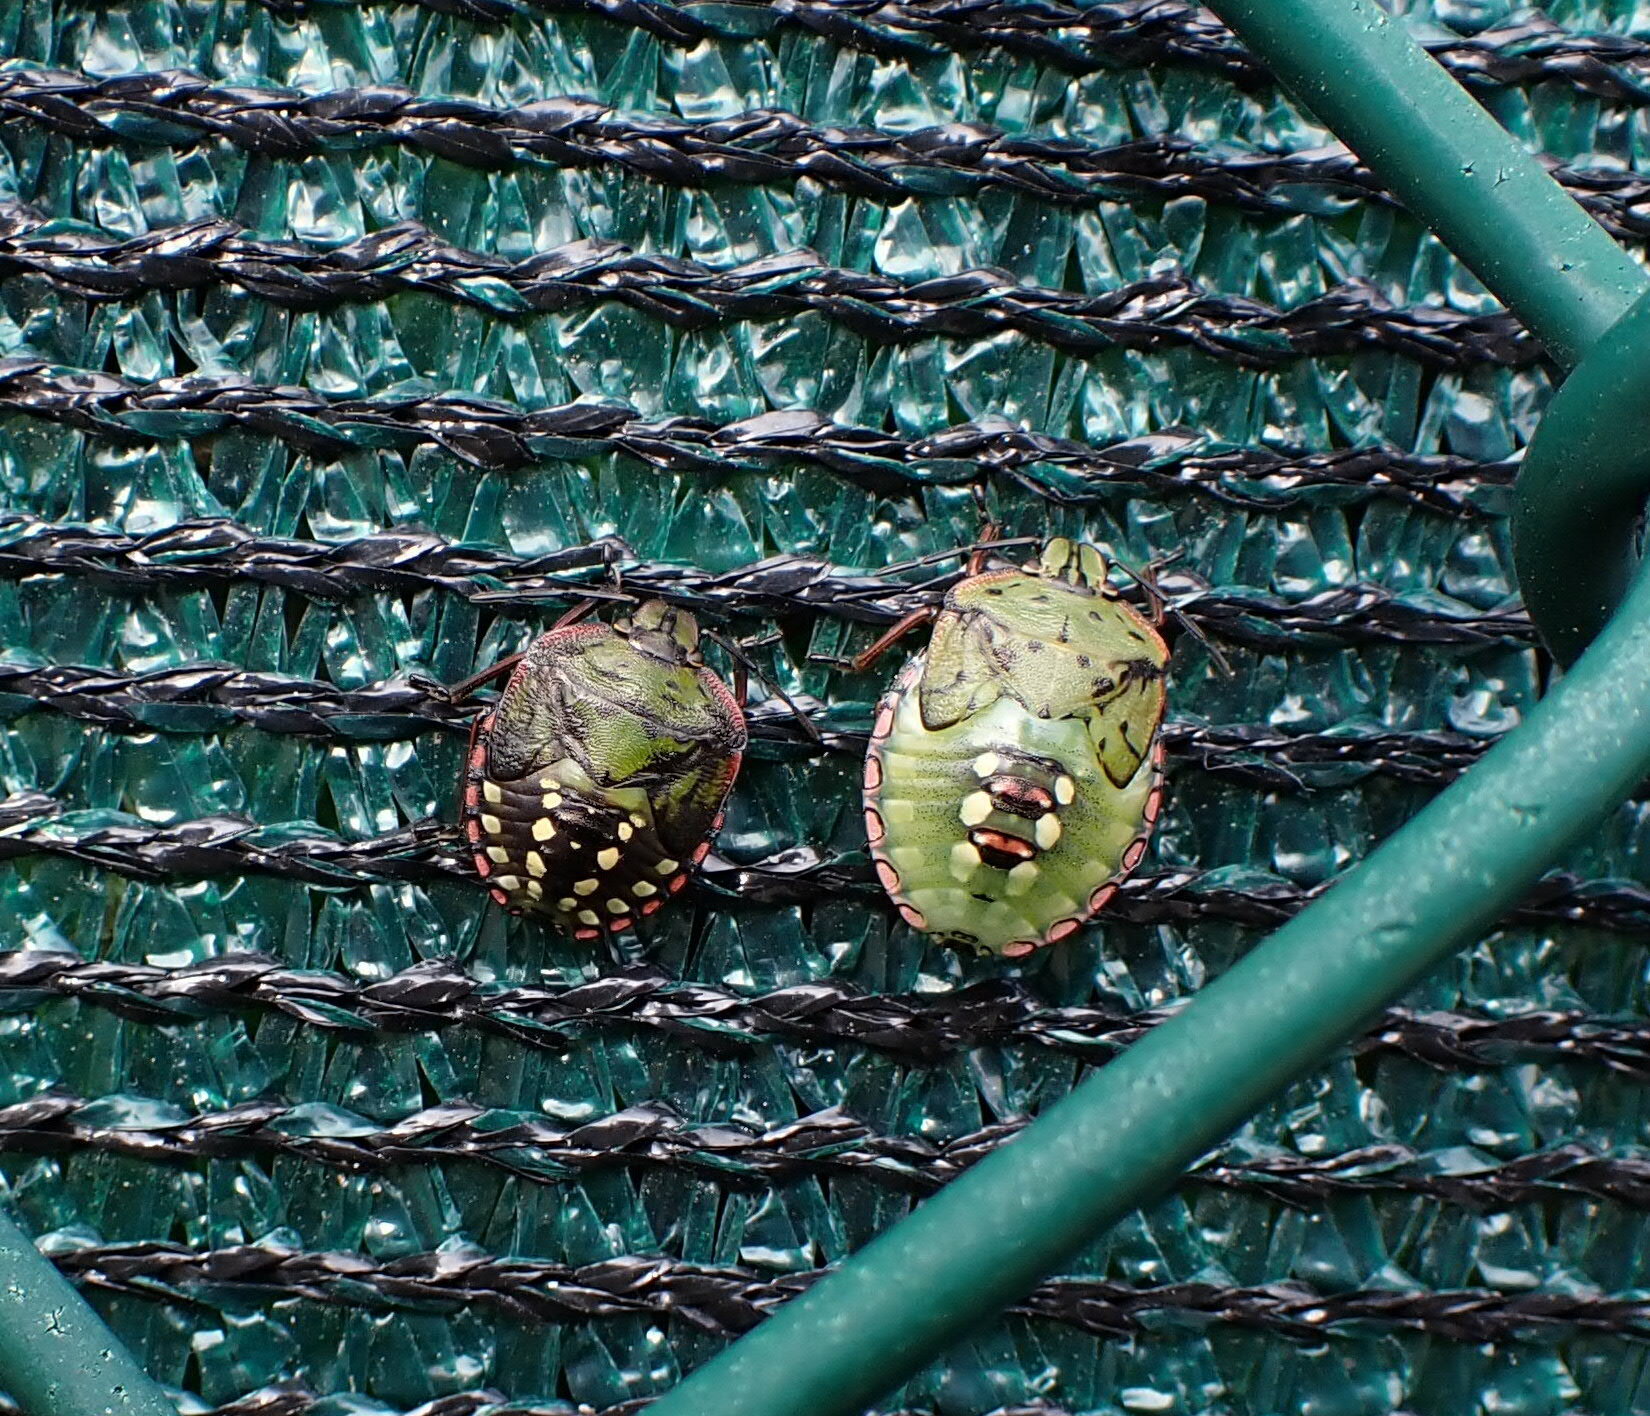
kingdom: Animalia
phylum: Arthropoda
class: Insecta
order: Hemiptera
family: Pentatomidae
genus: Nezara
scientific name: Nezara viridula
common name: Southern green stink bug
